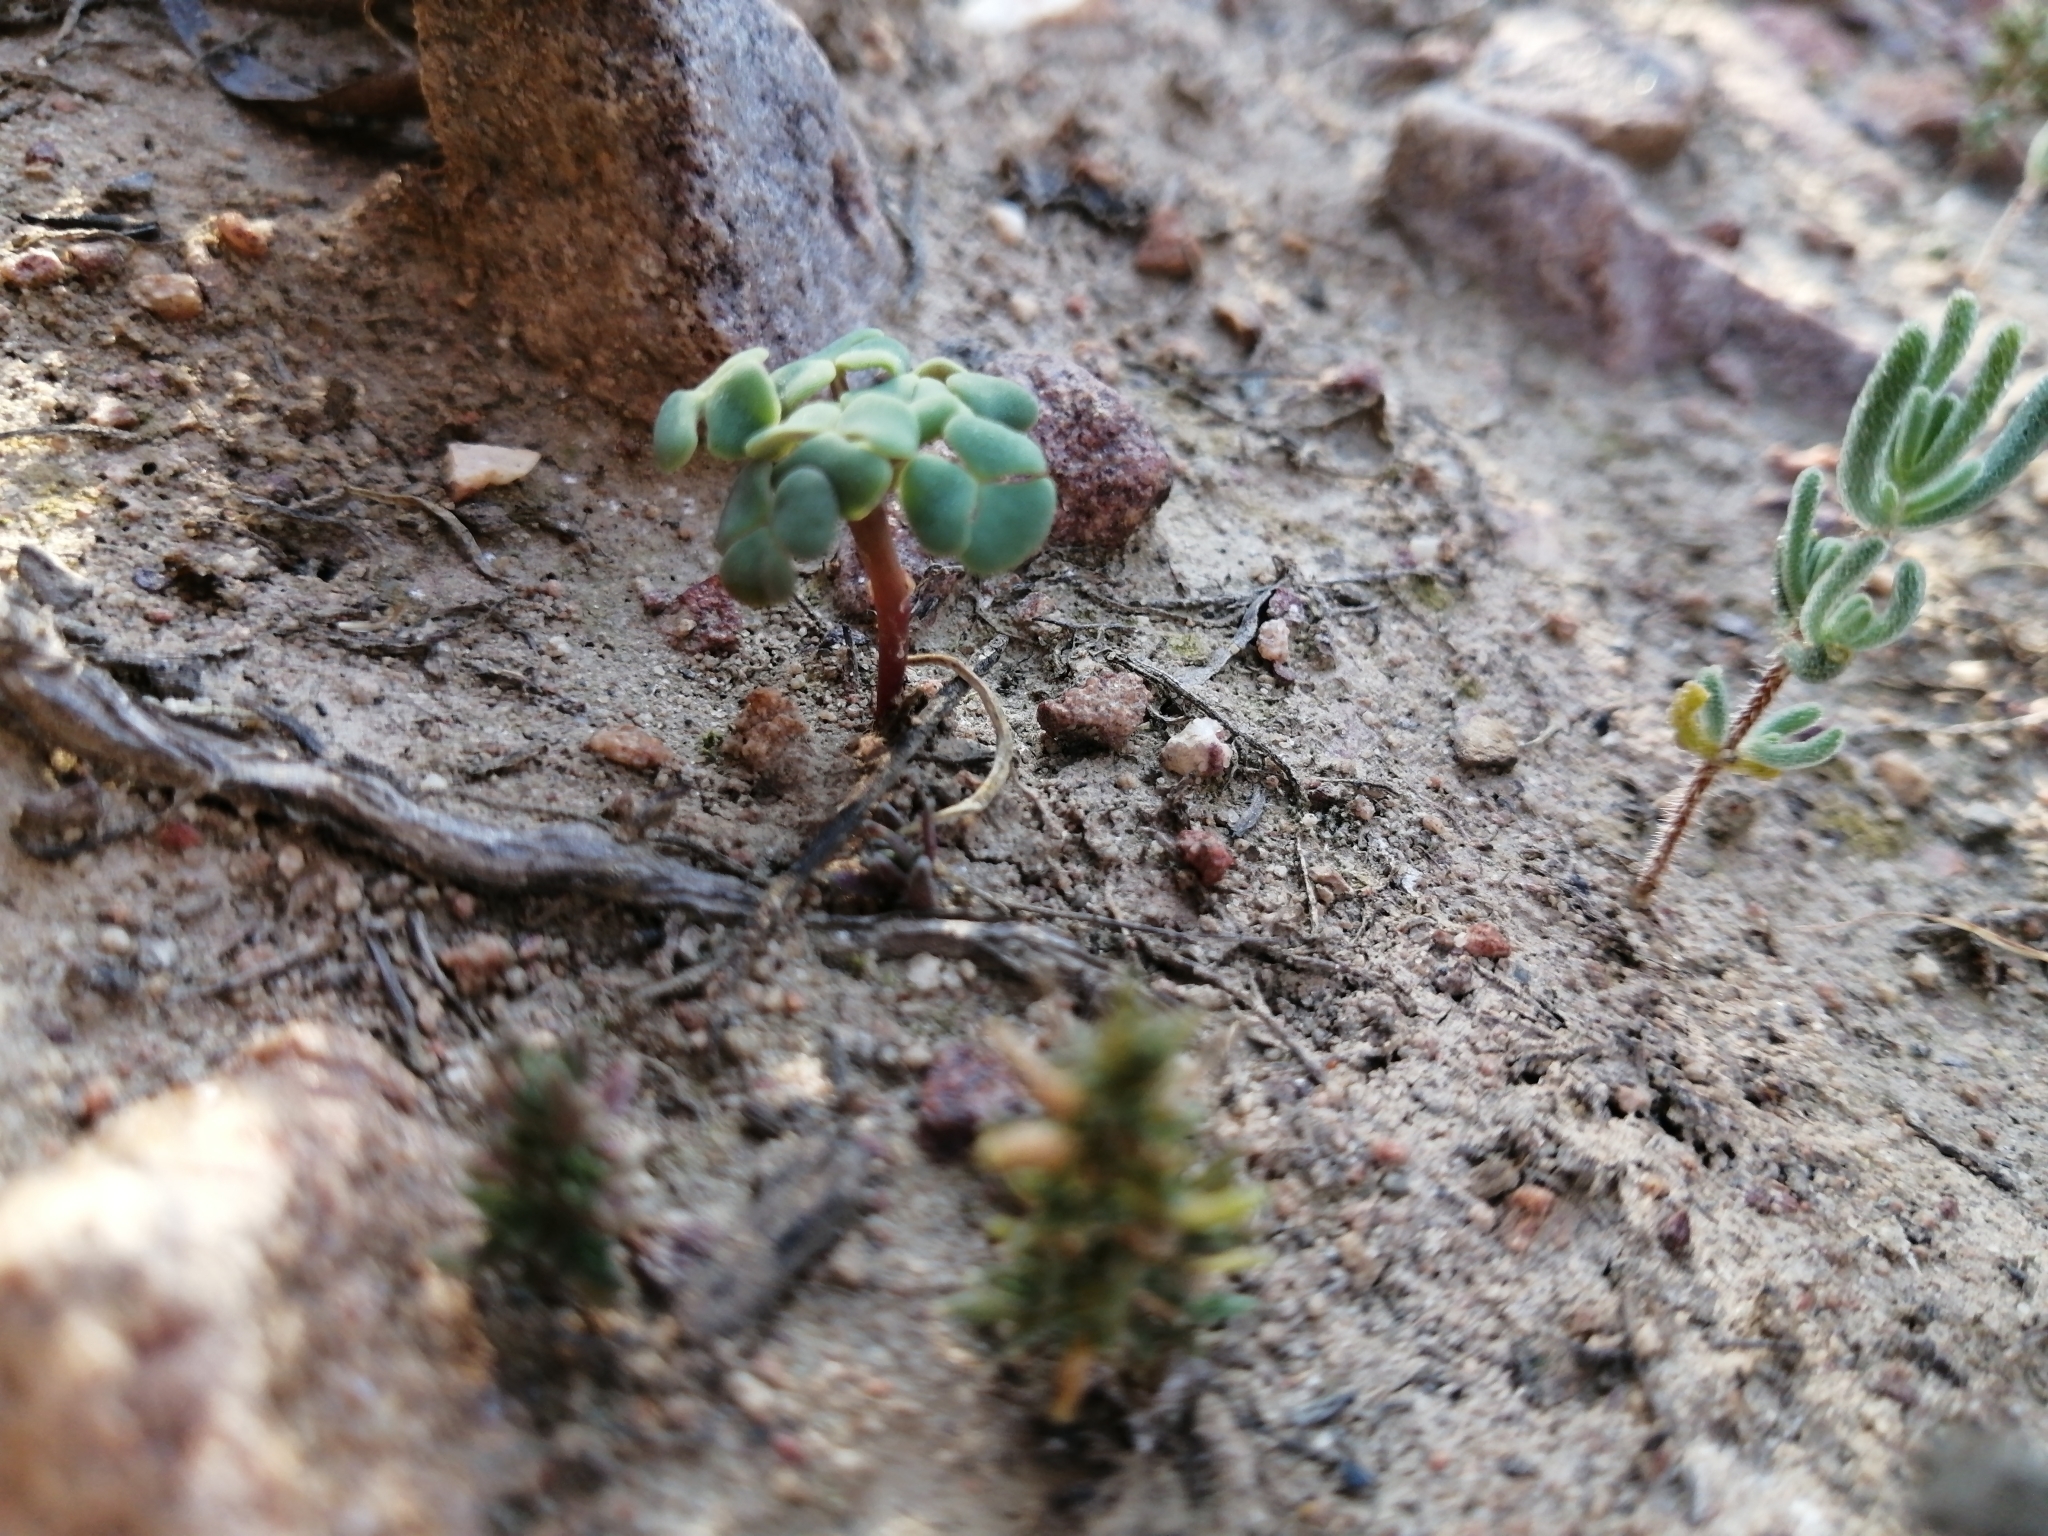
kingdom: Plantae
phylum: Tracheophyta
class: Magnoliopsida
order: Oxalidales
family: Oxalidaceae
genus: Oxalis
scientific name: Oxalis convexula
